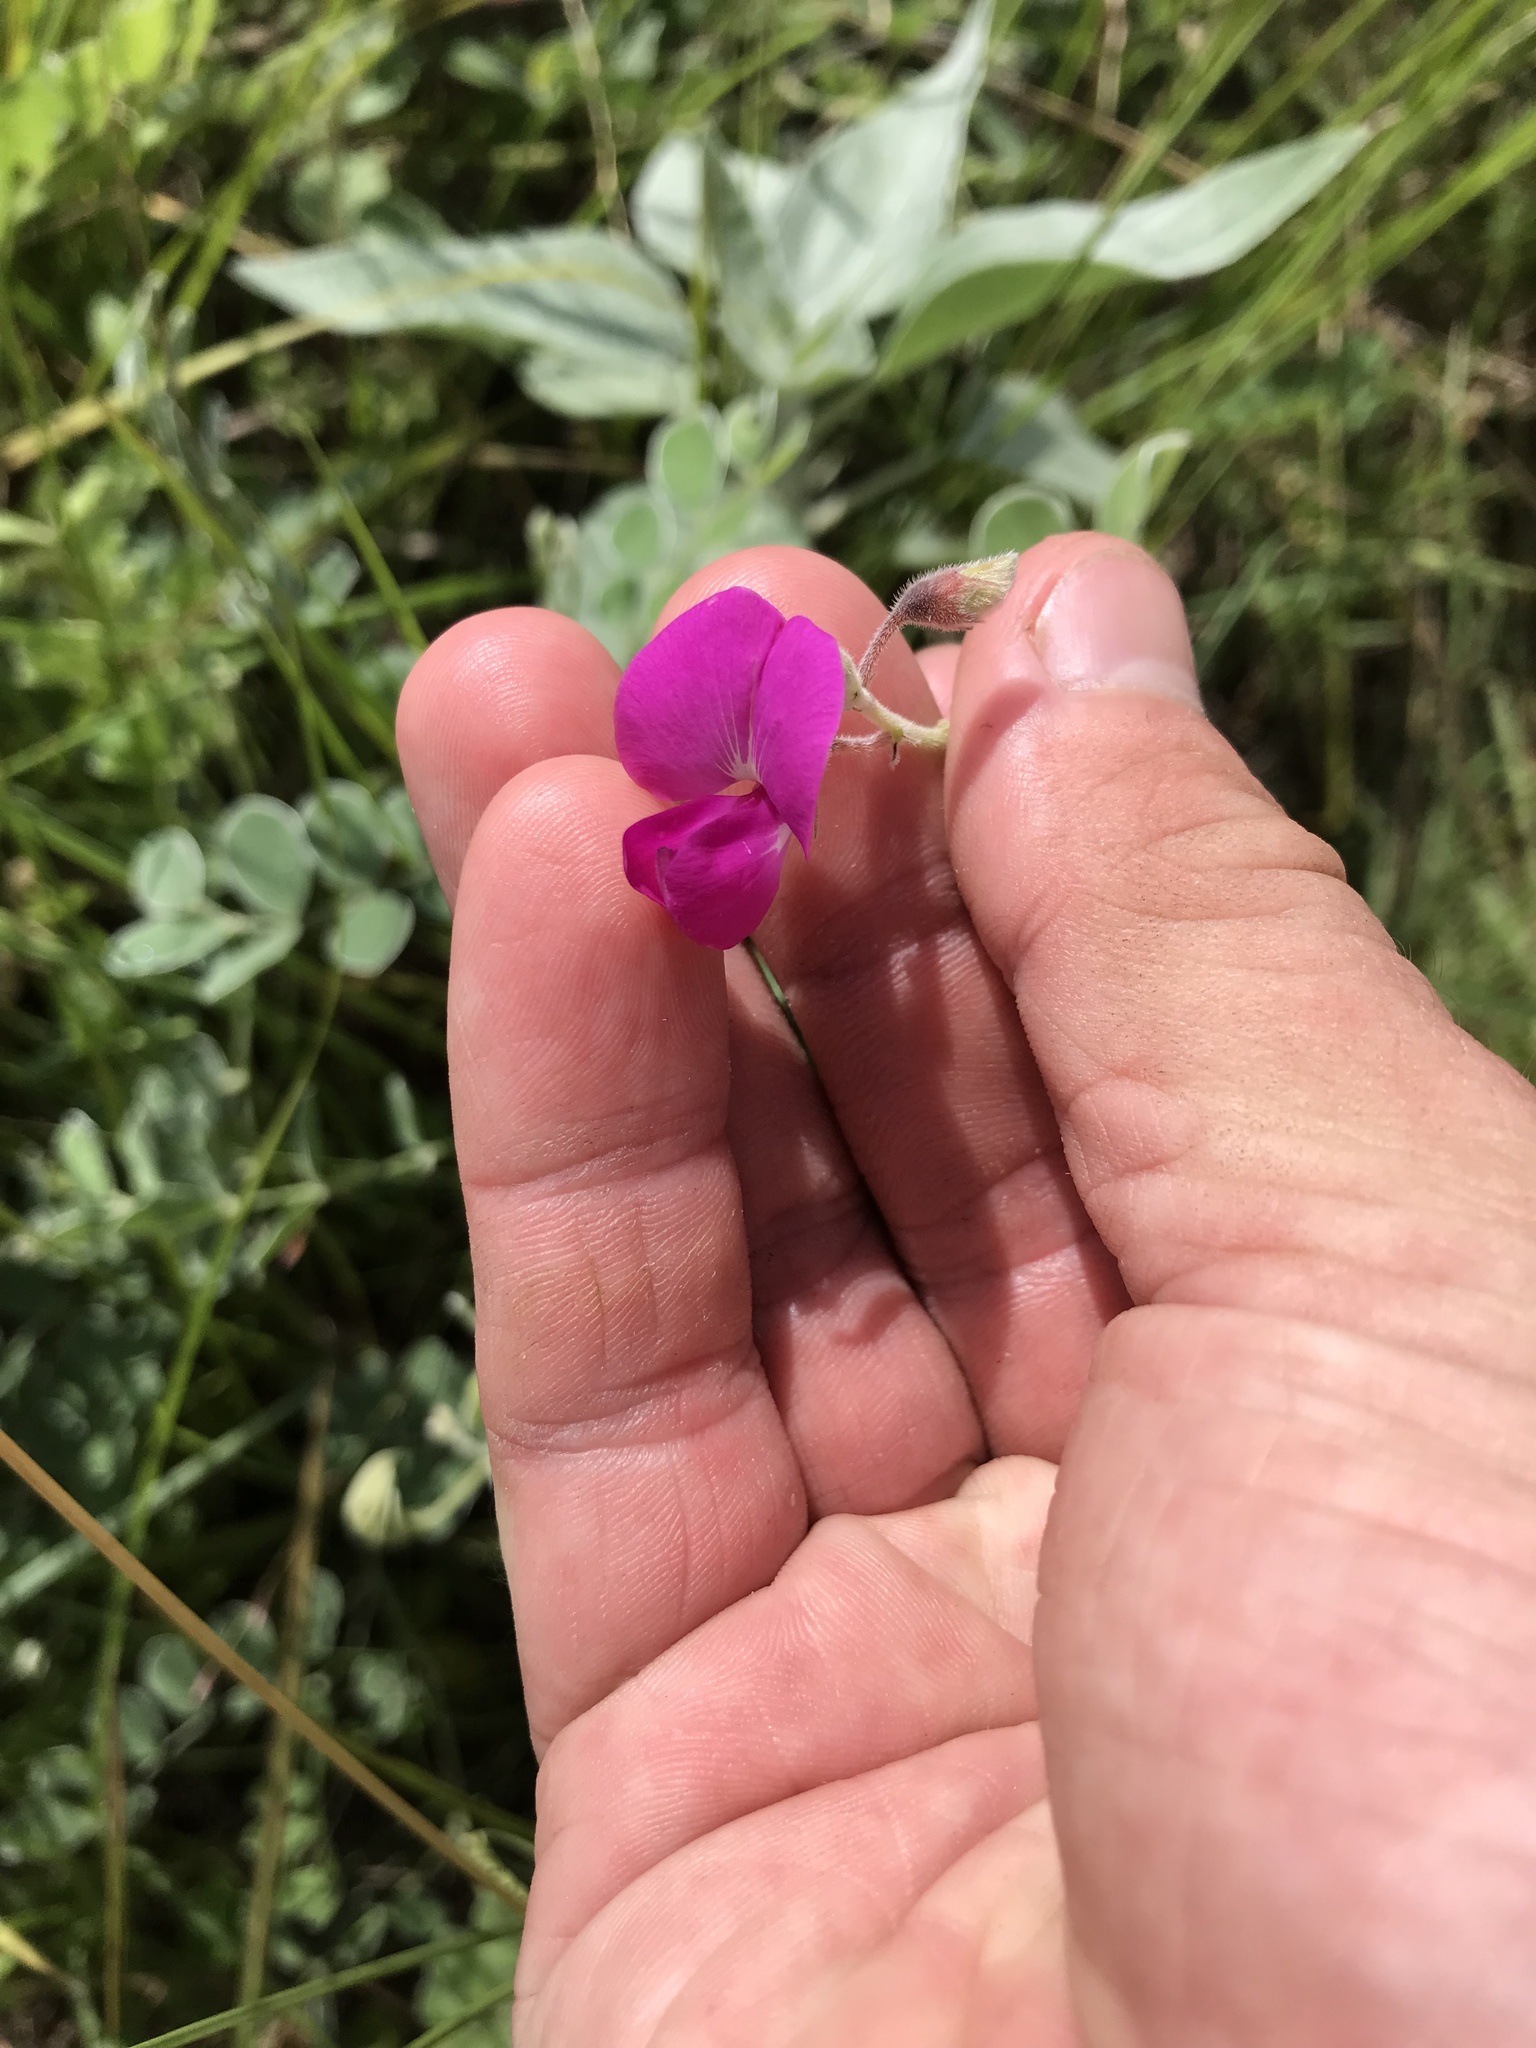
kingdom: Plantae
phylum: Tracheophyta
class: Magnoliopsida
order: Fabales
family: Fabaceae
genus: Tephrosia
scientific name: Tephrosia lindheimeri
